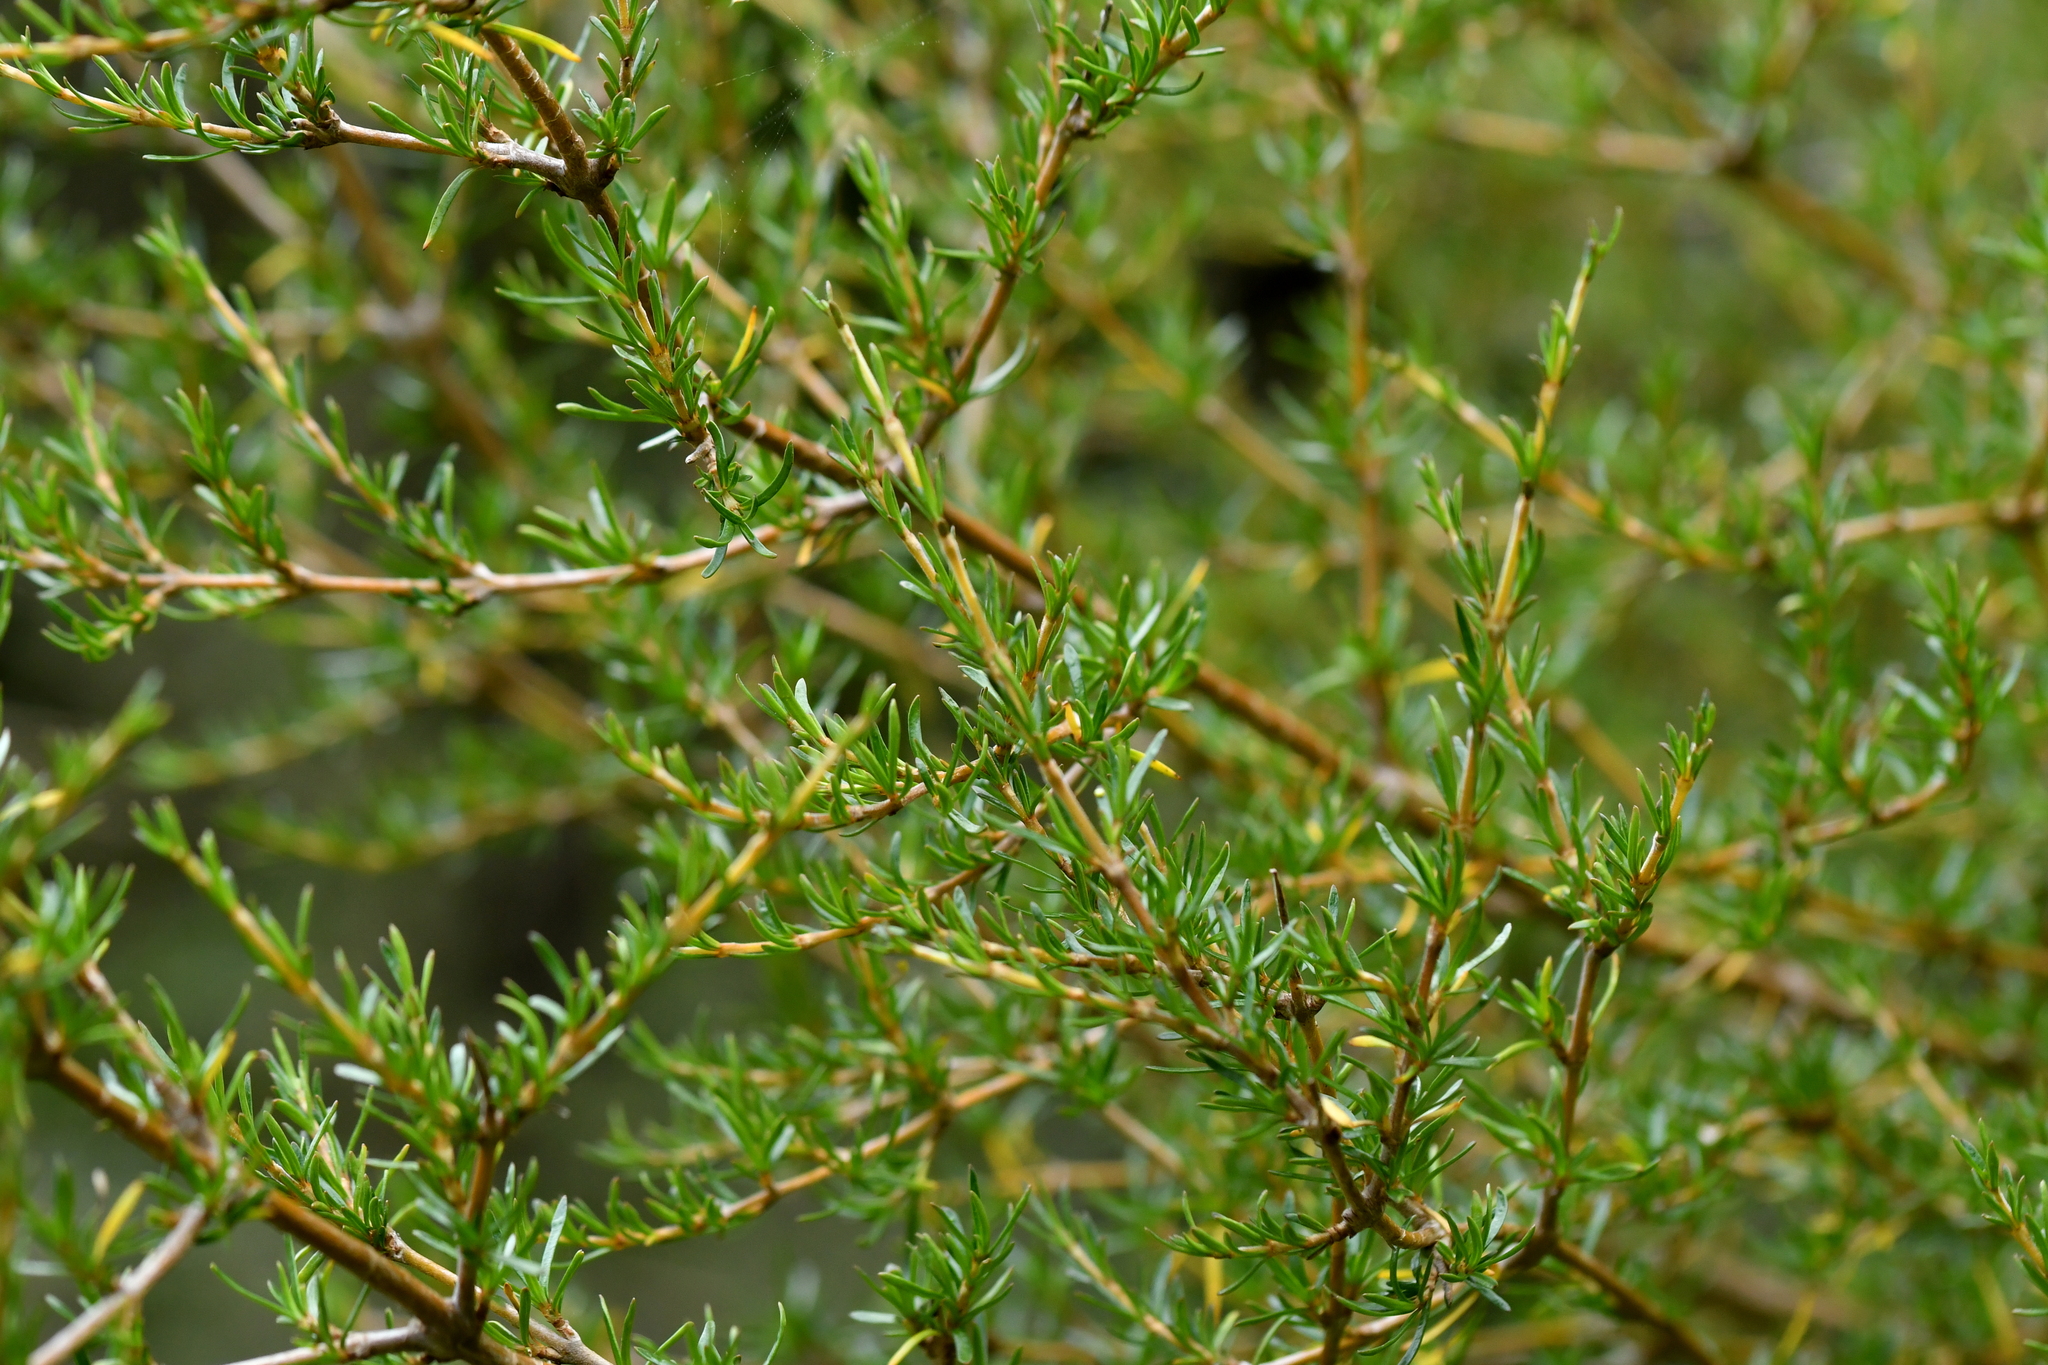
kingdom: Plantae
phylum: Tracheophyta
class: Magnoliopsida
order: Gentianales
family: Rubiaceae
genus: Coprosma
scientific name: Coprosma rugosa
